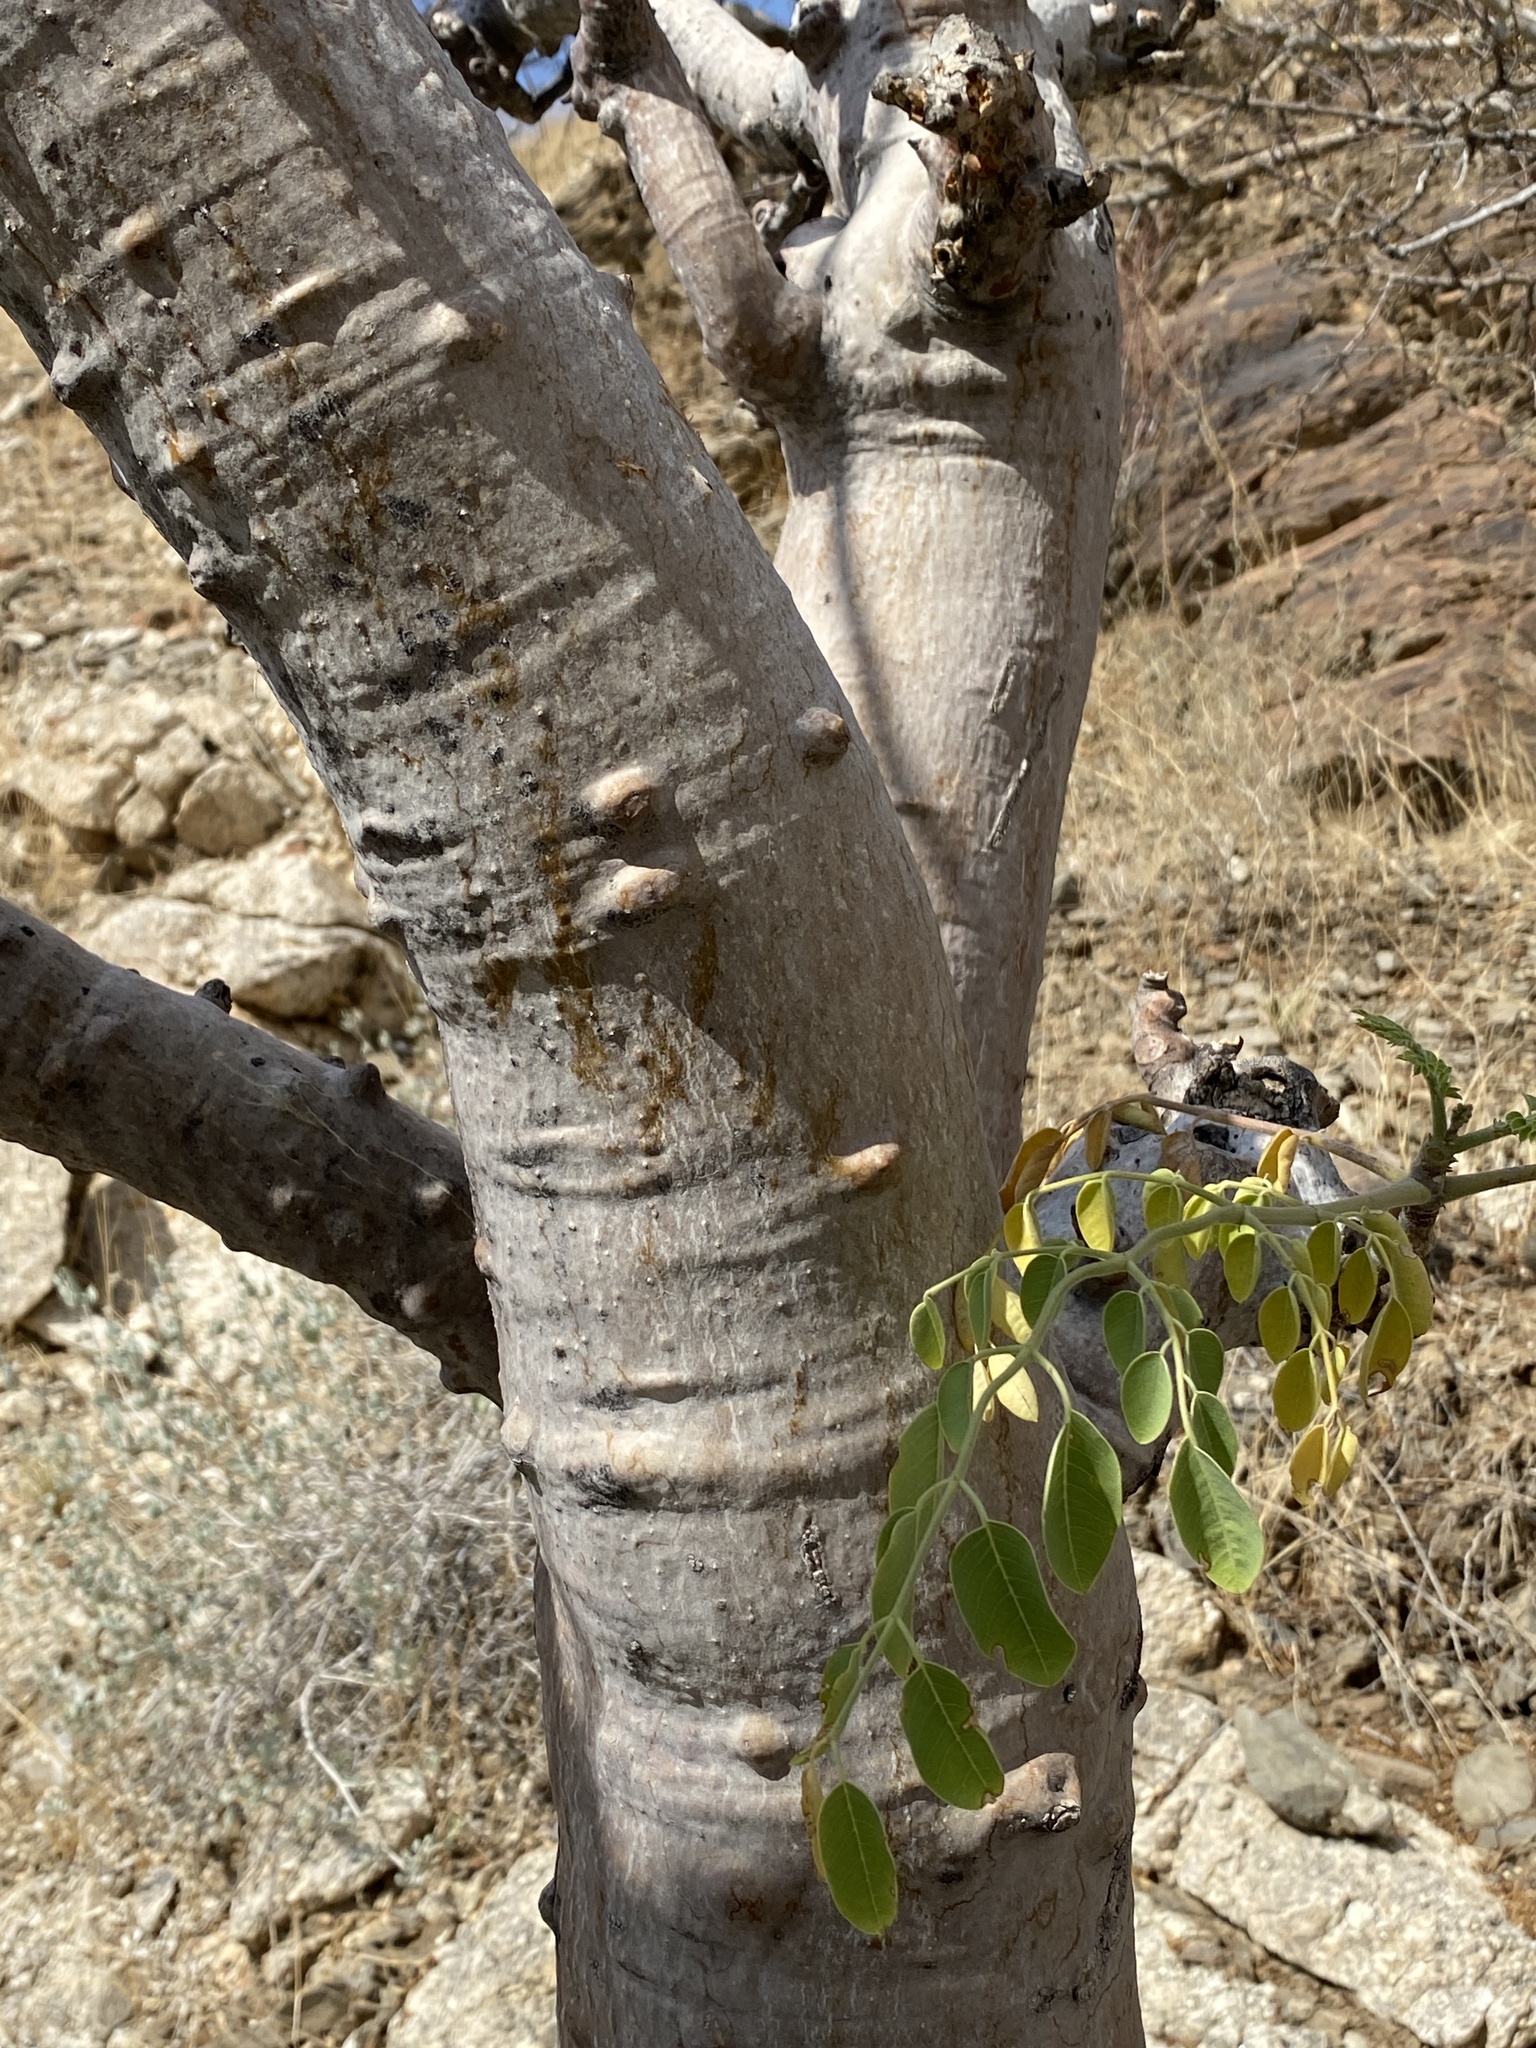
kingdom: Plantae
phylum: Tracheophyta
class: Magnoliopsida
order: Brassicales
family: Moringaceae
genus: Moringa
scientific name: Moringa ovalifolia
